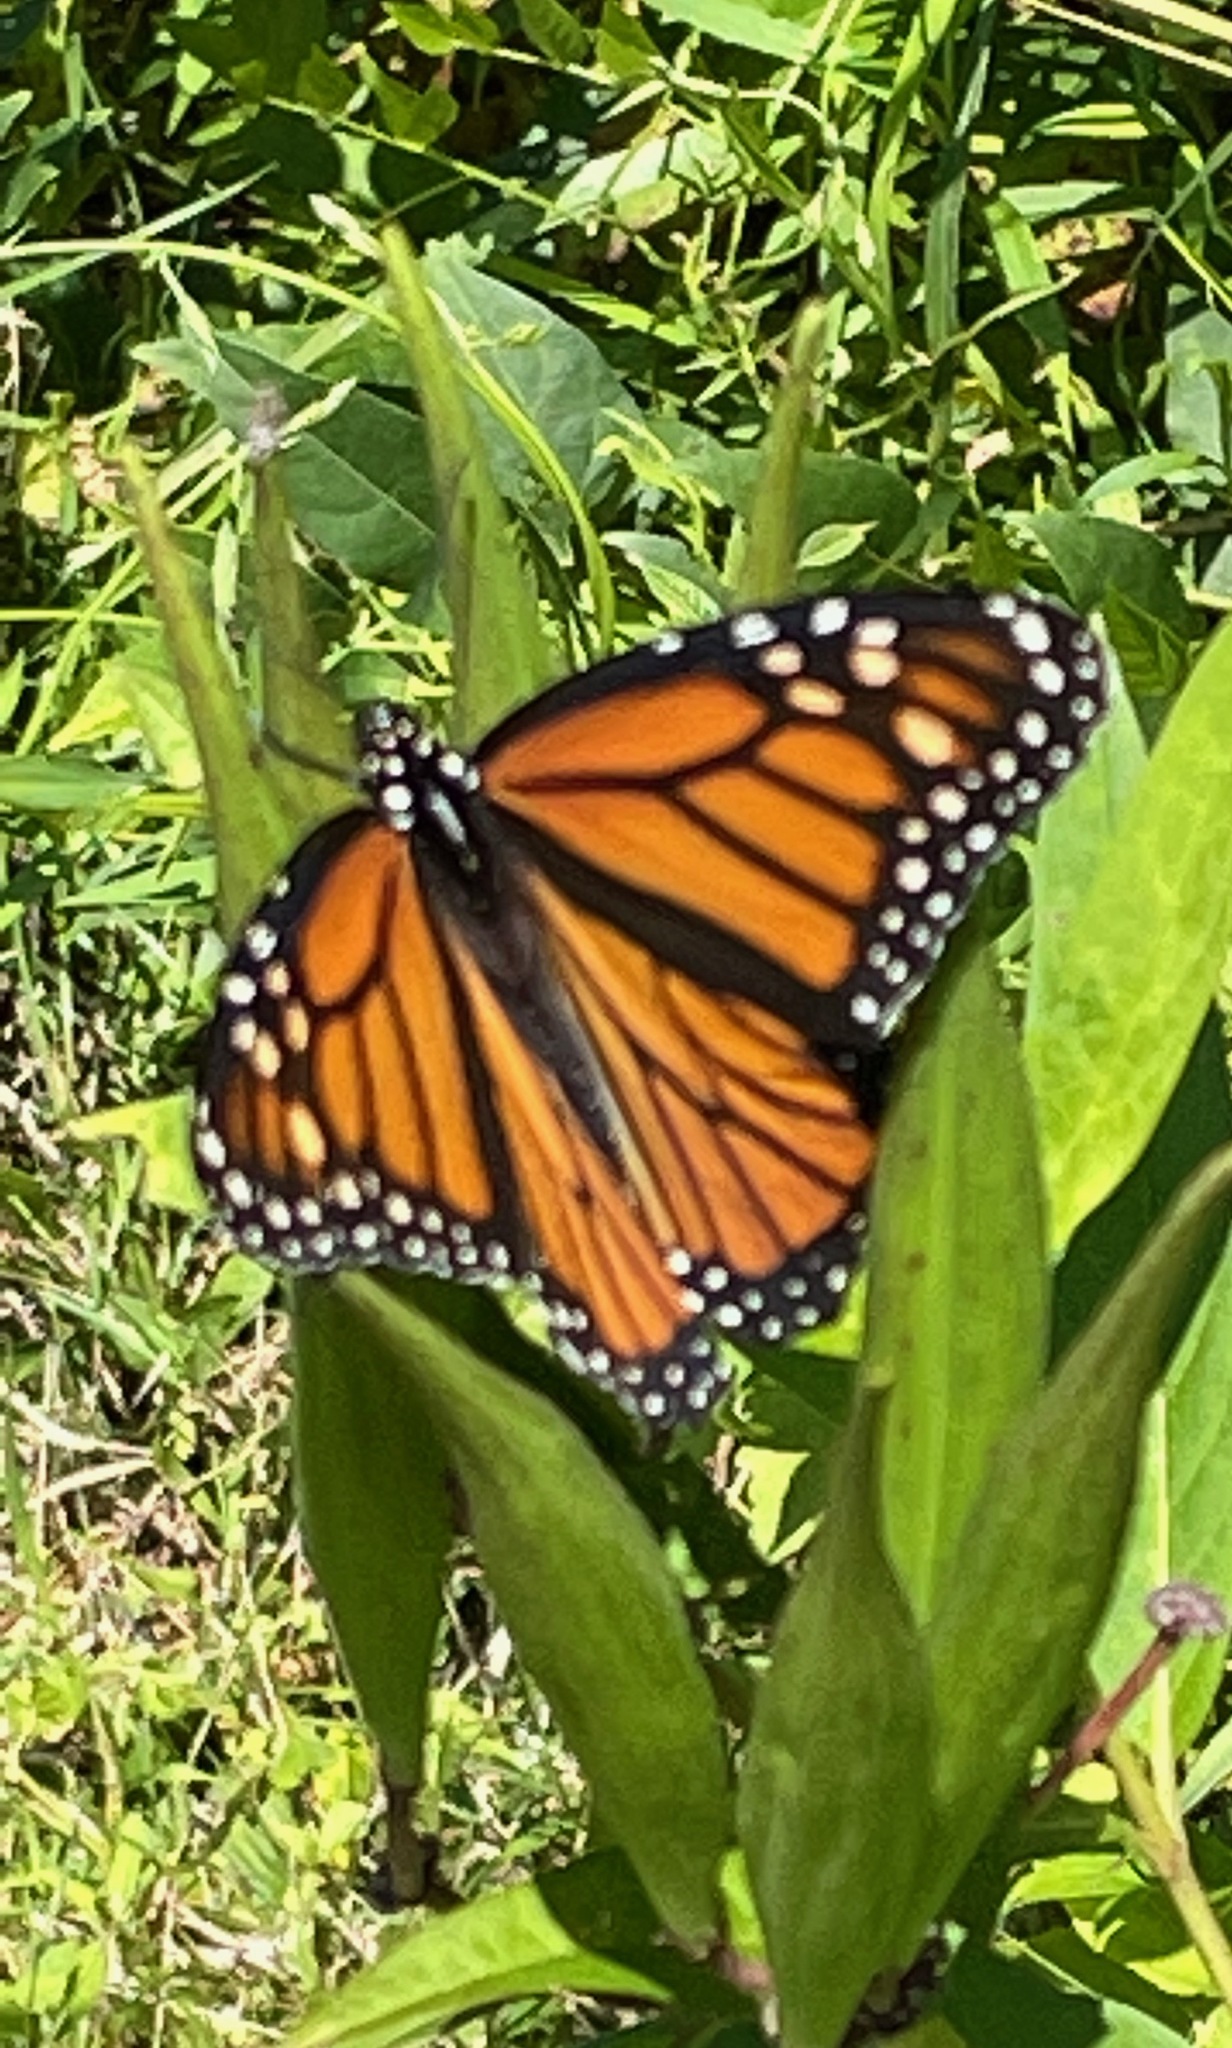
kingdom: Animalia
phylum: Arthropoda
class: Insecta
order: Lepidoptera
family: Nymphalidae
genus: Danaus
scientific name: Danaus plexippus
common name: Monarch
